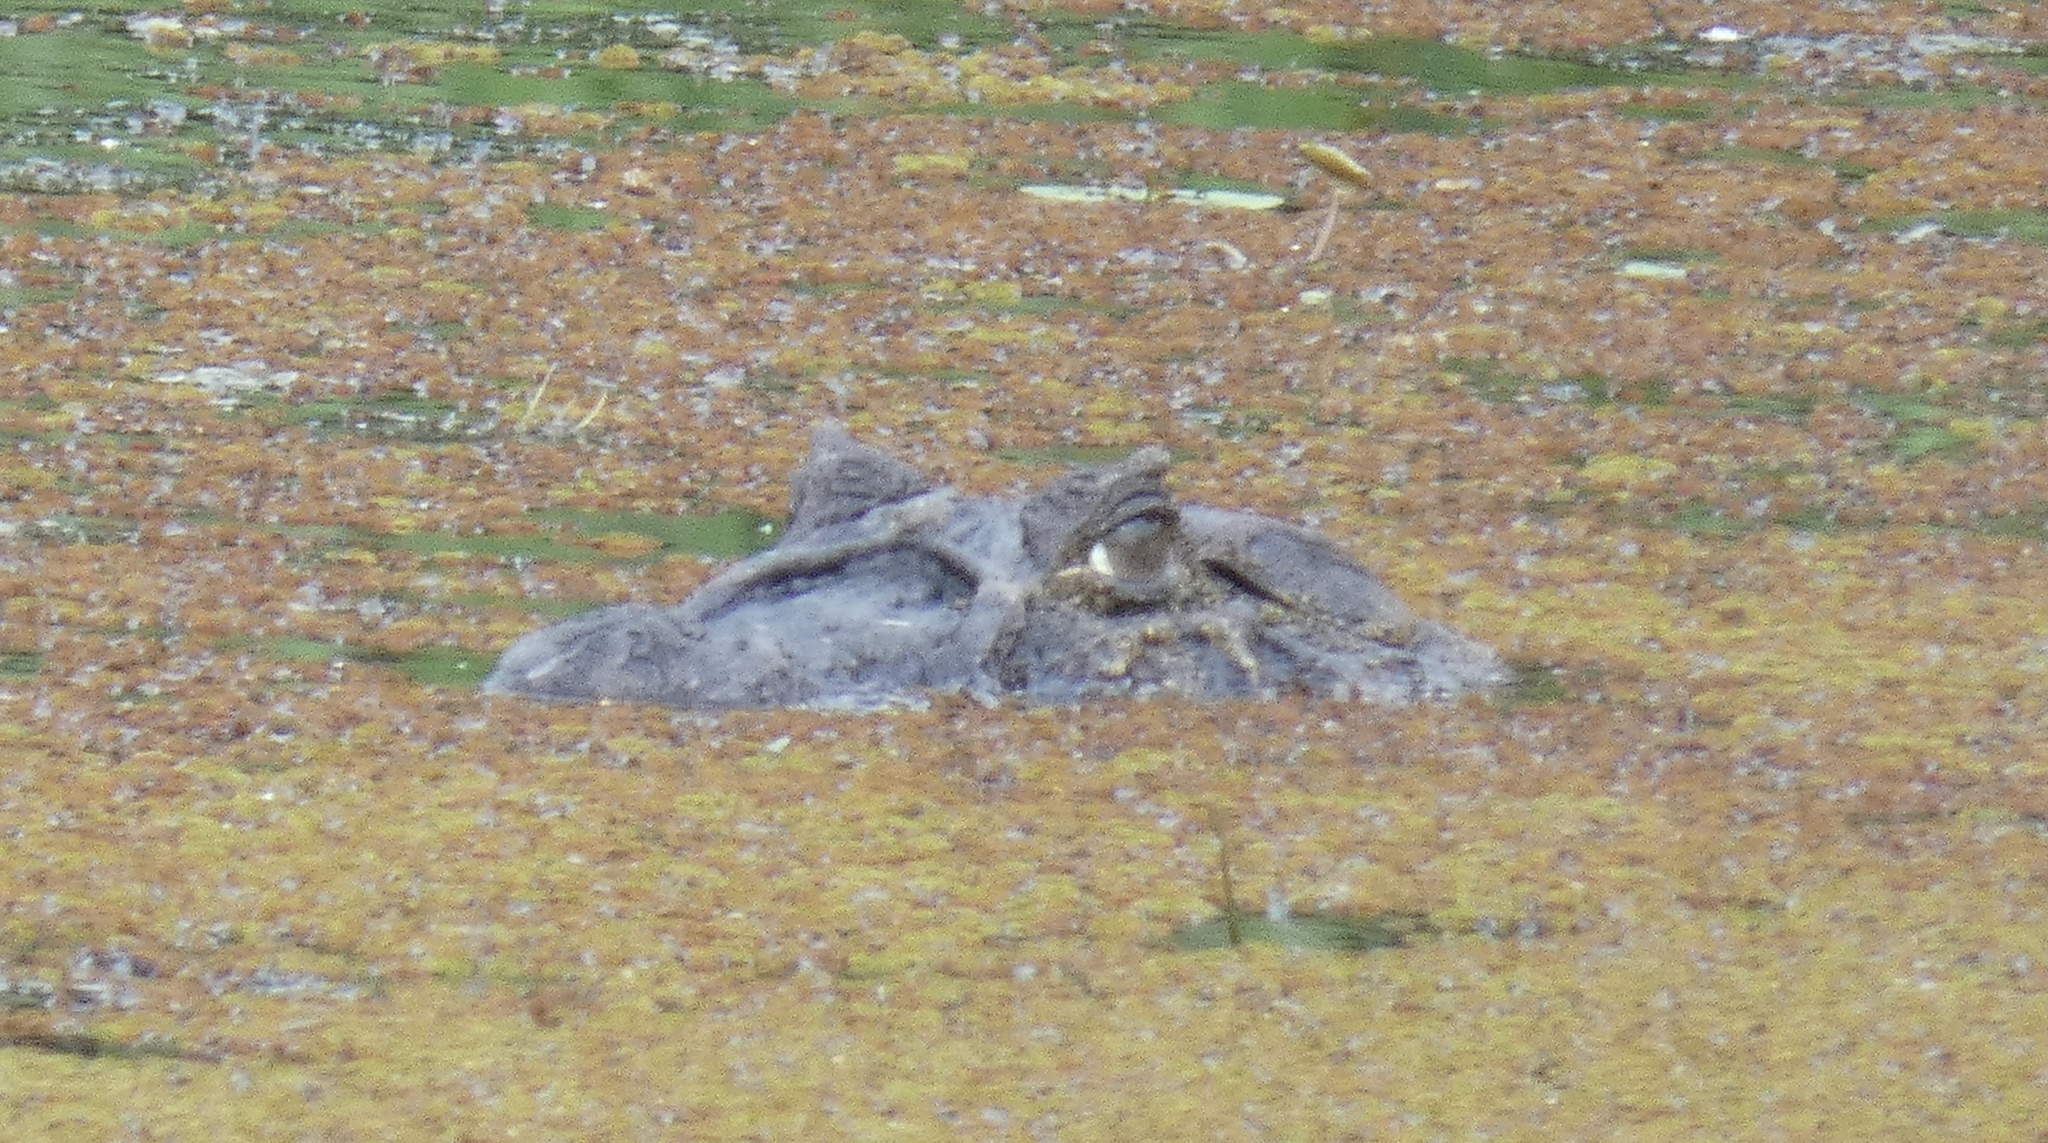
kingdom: Animalia
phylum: Chordata
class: Crocodylia
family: Alligatoridae
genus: Caiman
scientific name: Caiman latirostris
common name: Broad-snouted caiman
